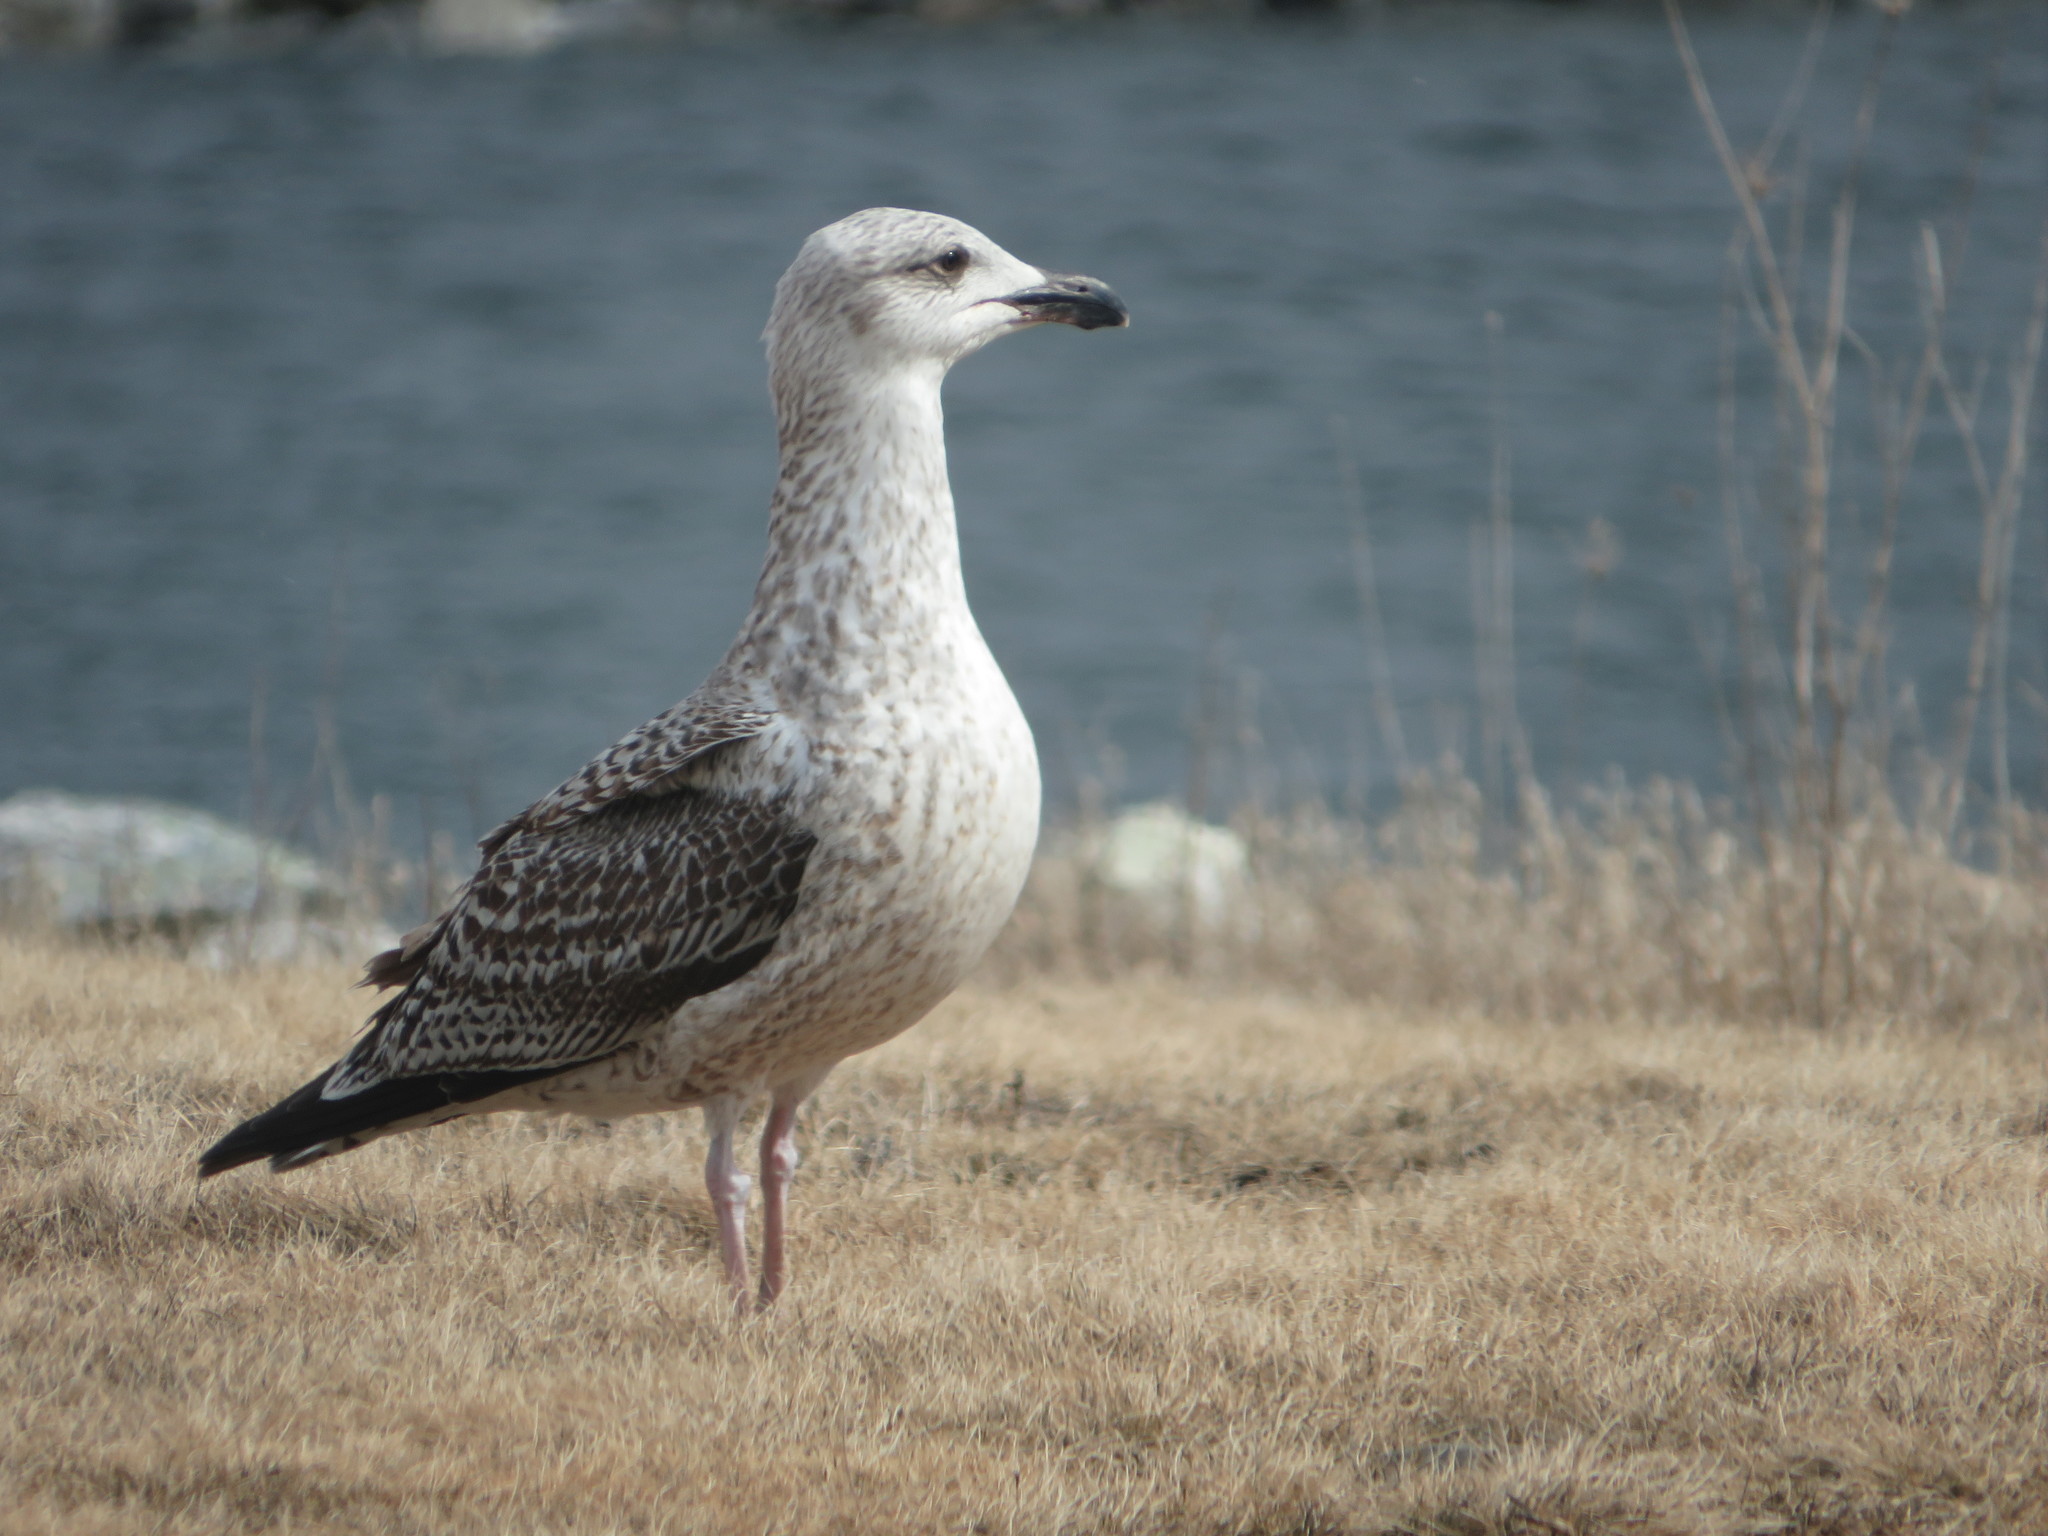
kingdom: Animalia
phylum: Chordata
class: Aves
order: Charadriiformes
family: Laridae
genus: Larus
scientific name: Larus marinus
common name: Great black-backed gull
